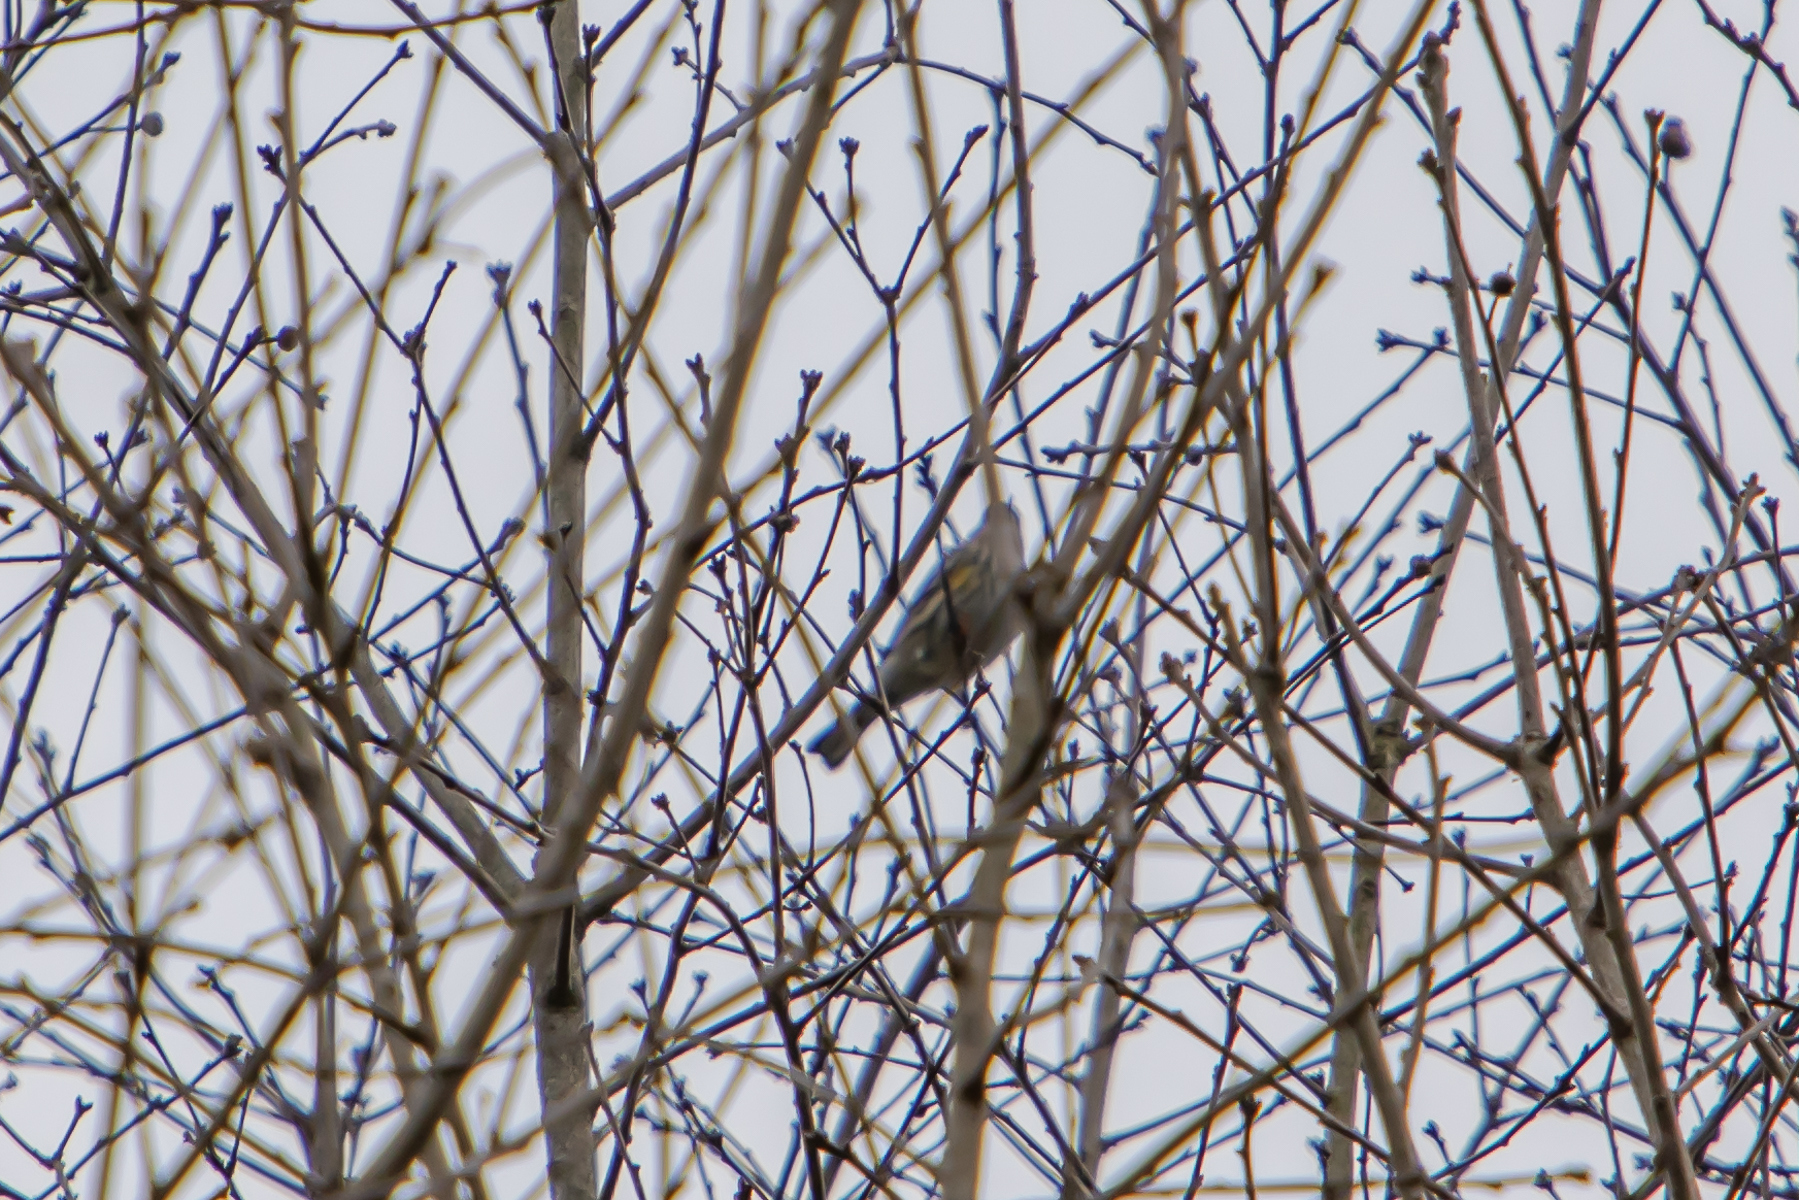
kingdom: Animalia
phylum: Chordata
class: Aves
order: Passeriformes
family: Parulidae
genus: Setophaga
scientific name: Setophaga coronata
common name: Myrtle warbler
